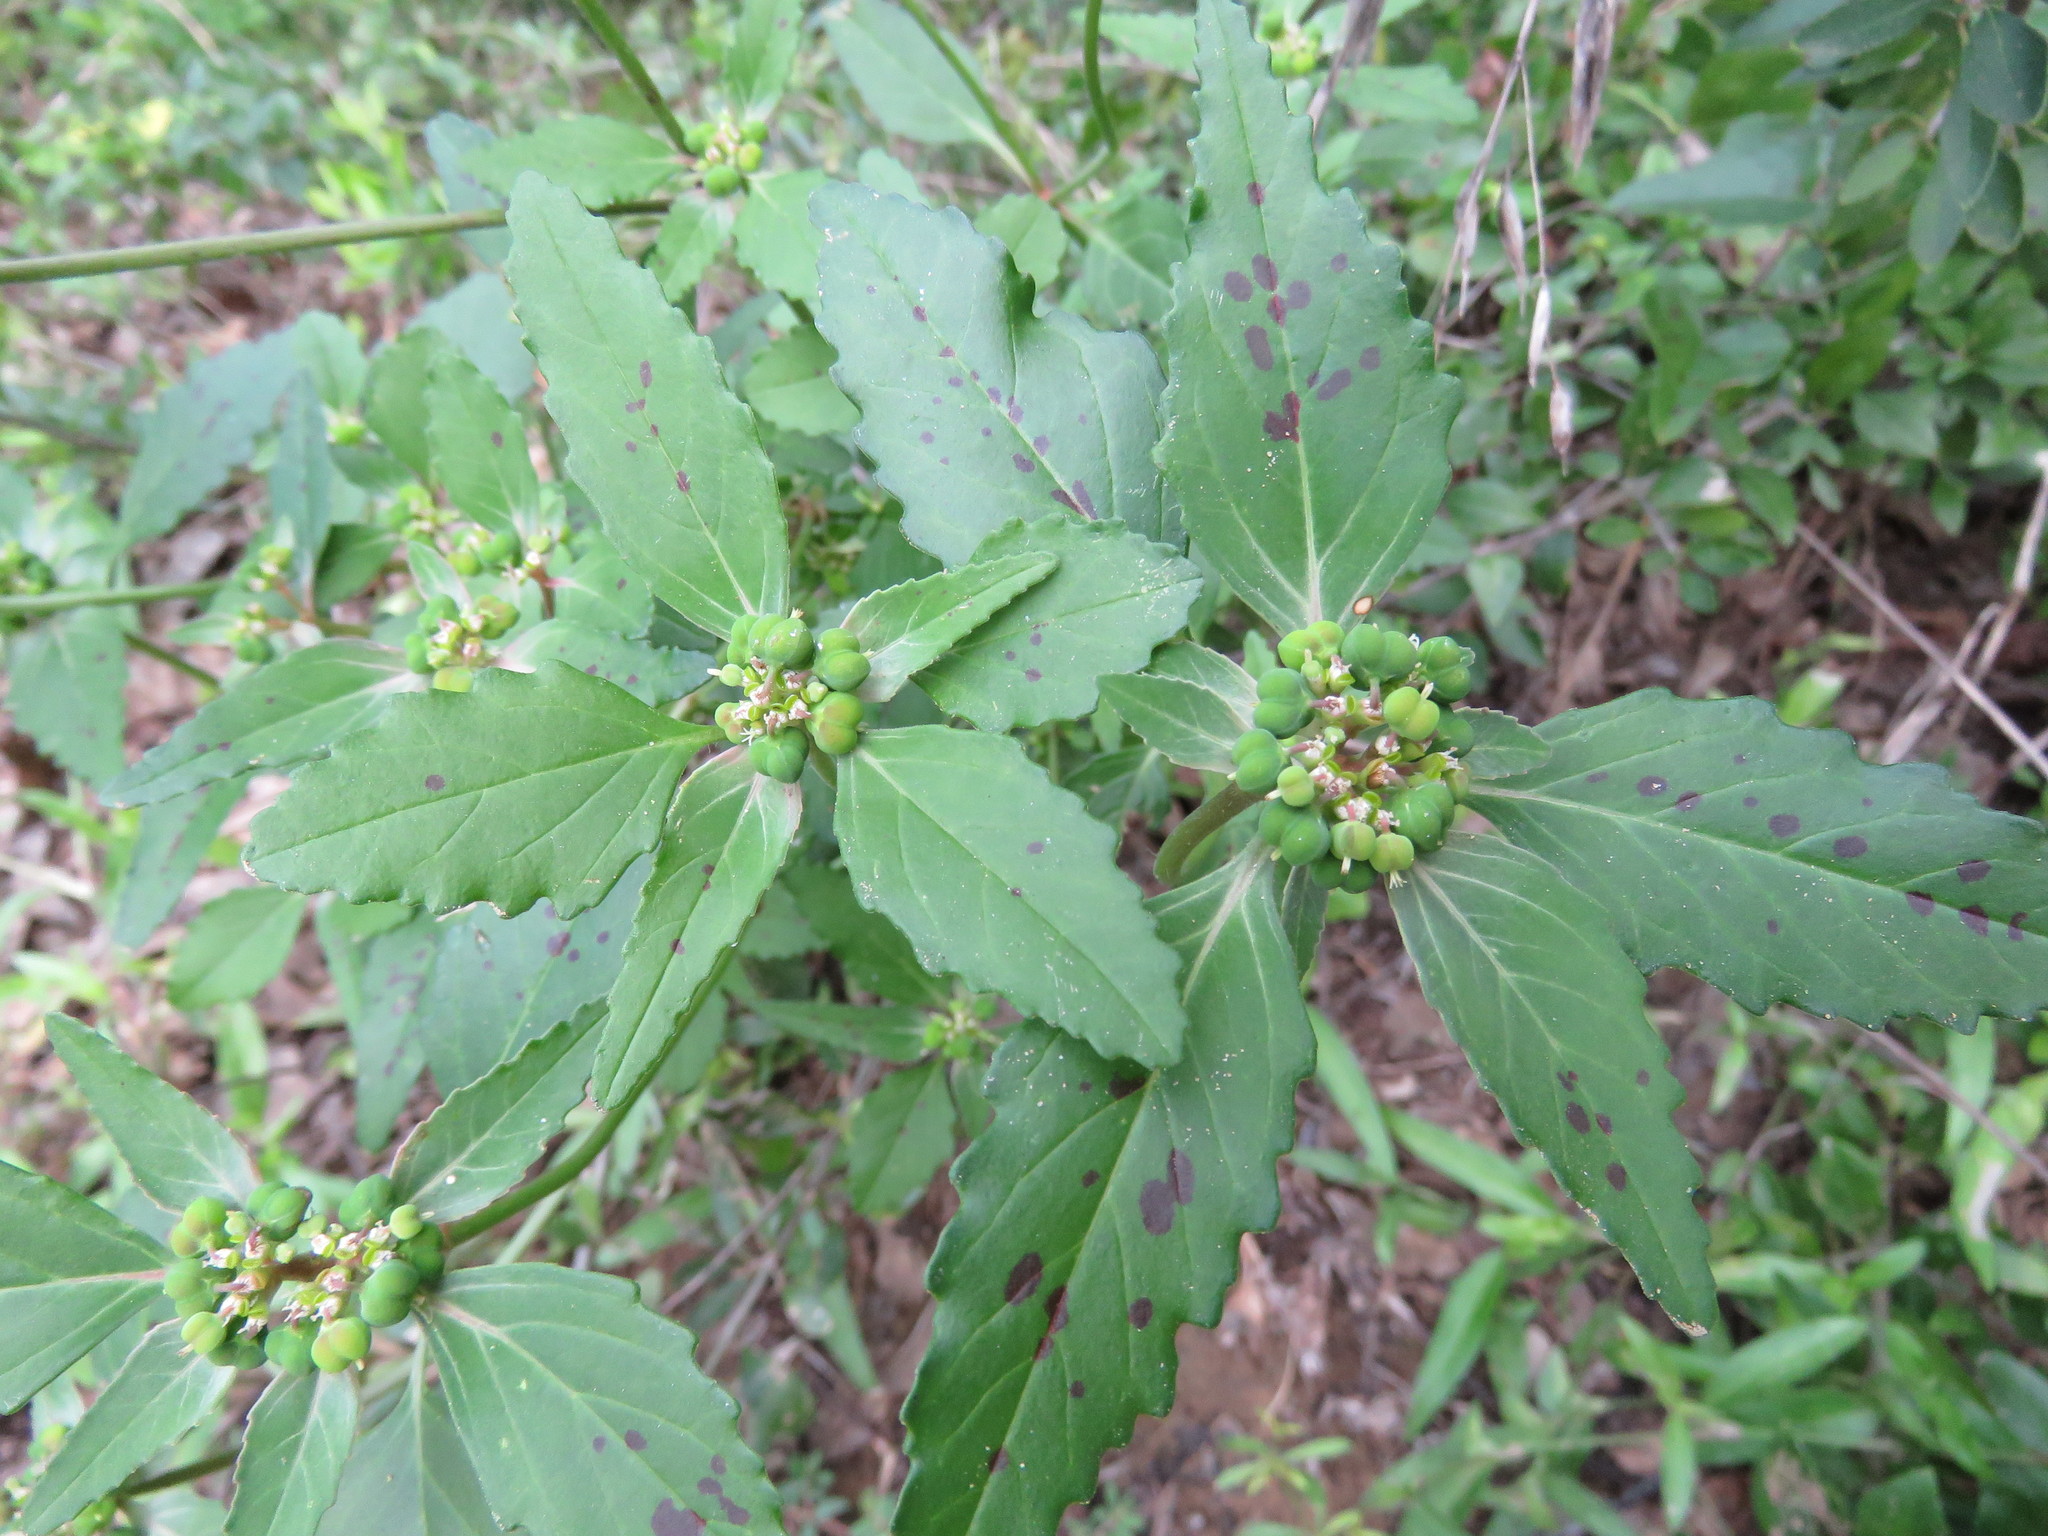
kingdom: Plantae
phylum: Tracheophyta
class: Magnoliopsida
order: Malpighiales
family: Euphorbiaceae
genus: Euphorbia
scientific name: Euphorbia dentata
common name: Dentate spurge
